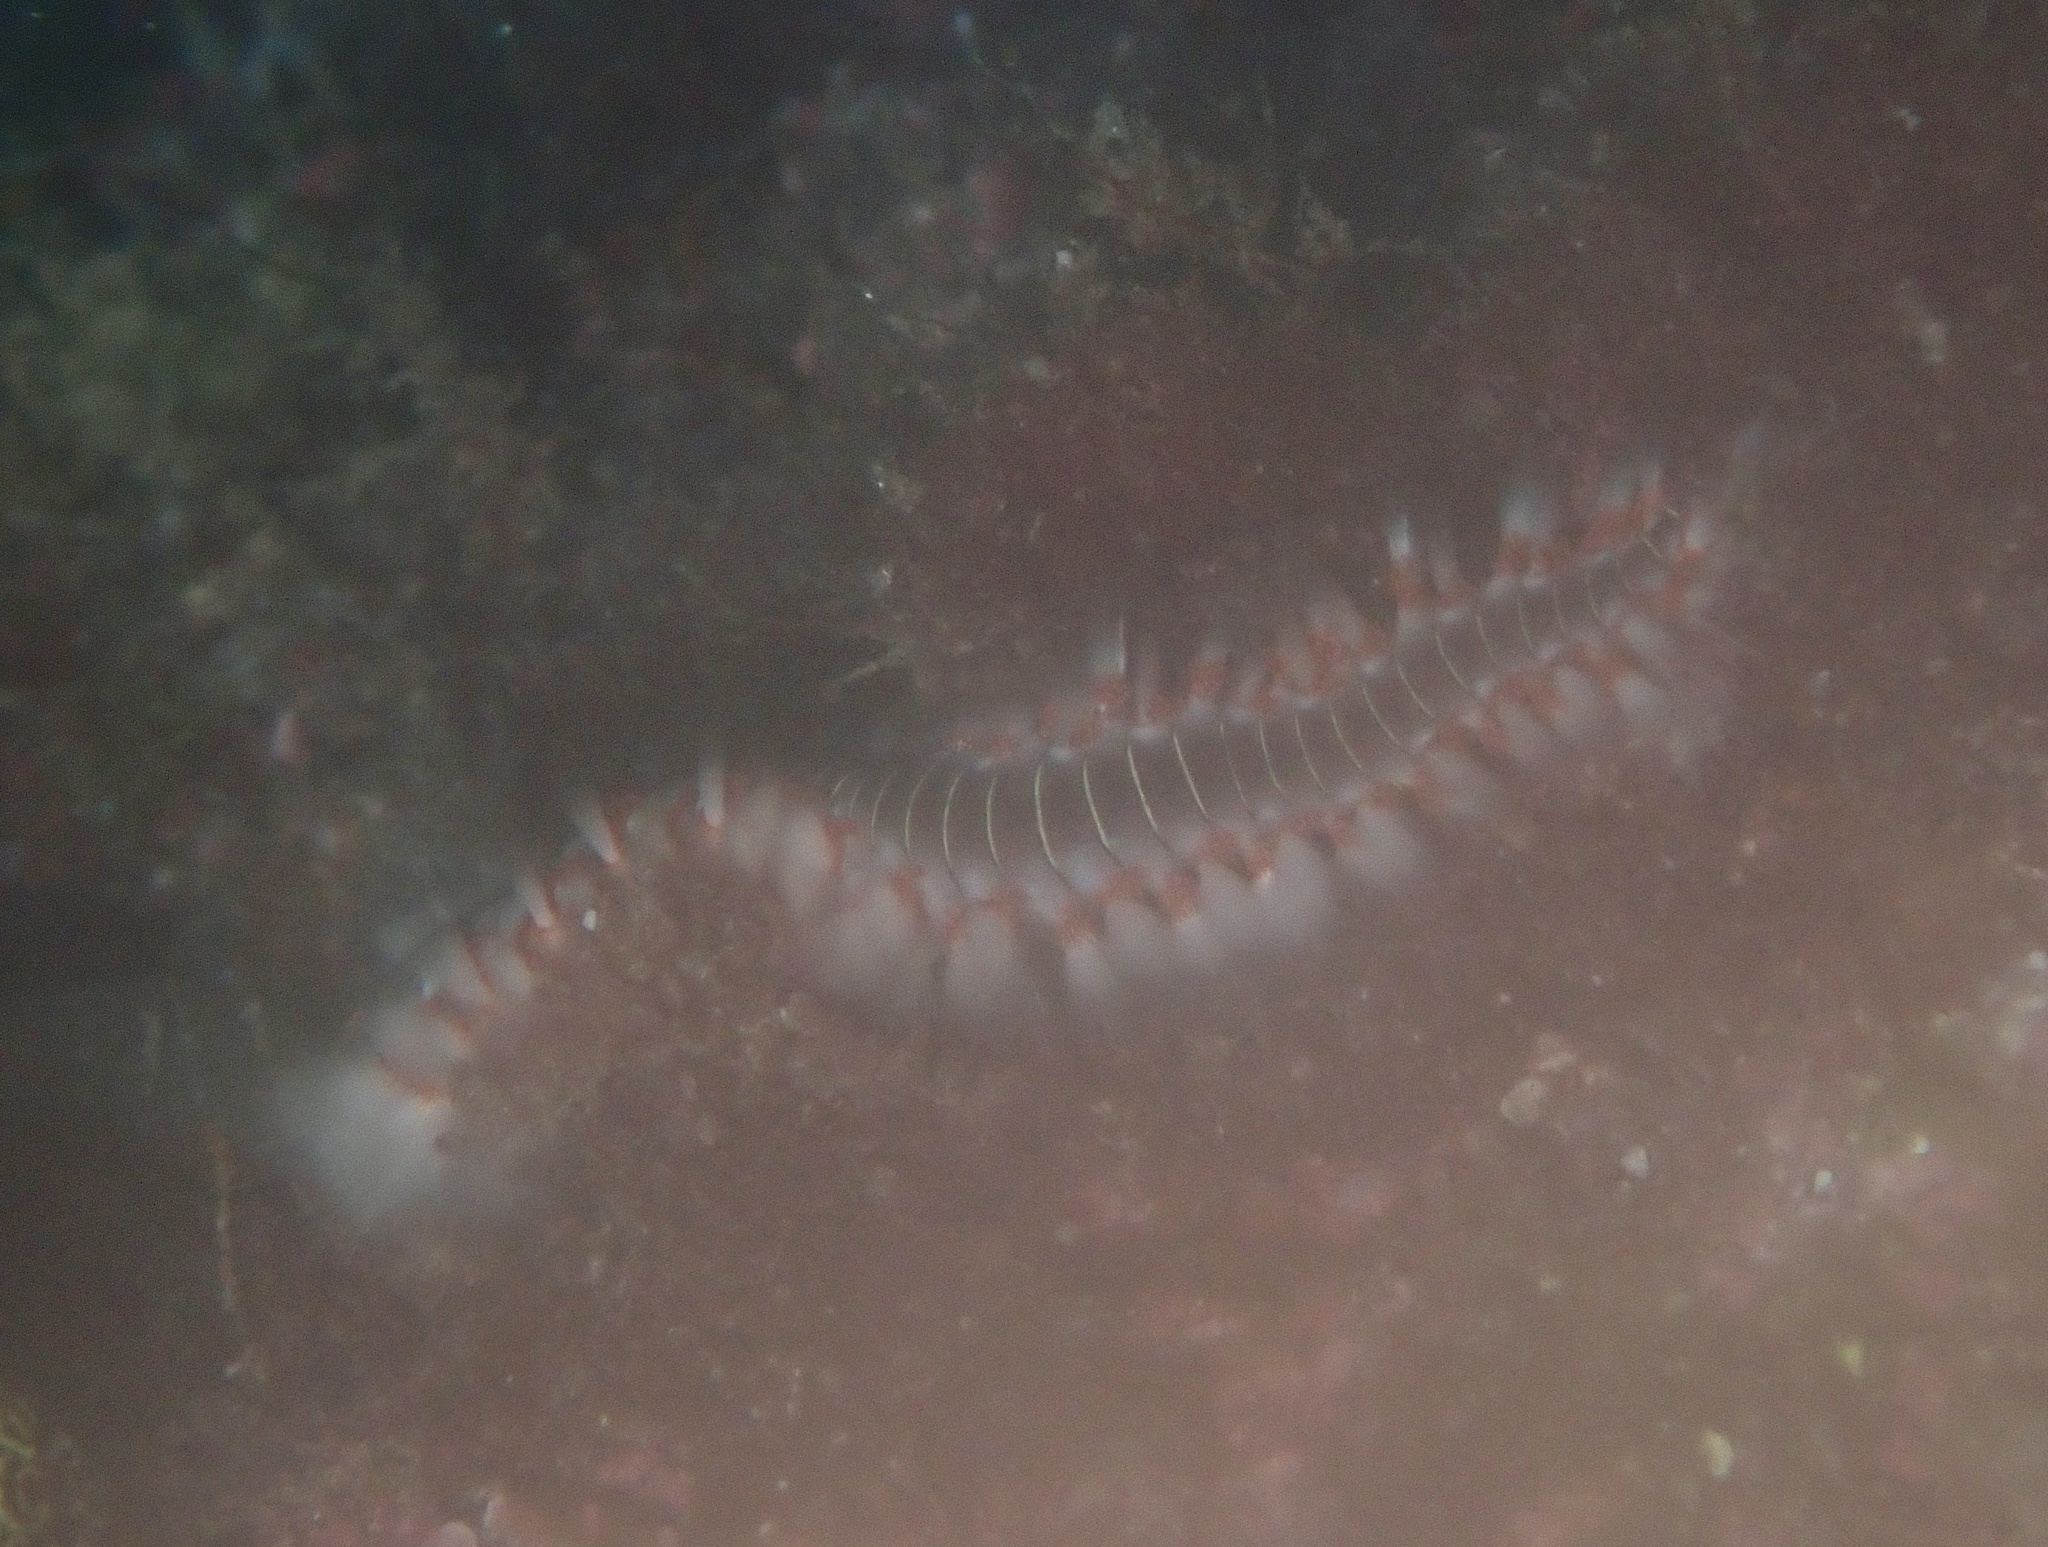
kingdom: Animalia
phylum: Annelida
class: Polychaeta
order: Amphinomida
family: Amphinomidae
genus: Hermodice
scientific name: Hermodice carunculata
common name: Bearded fireworm
